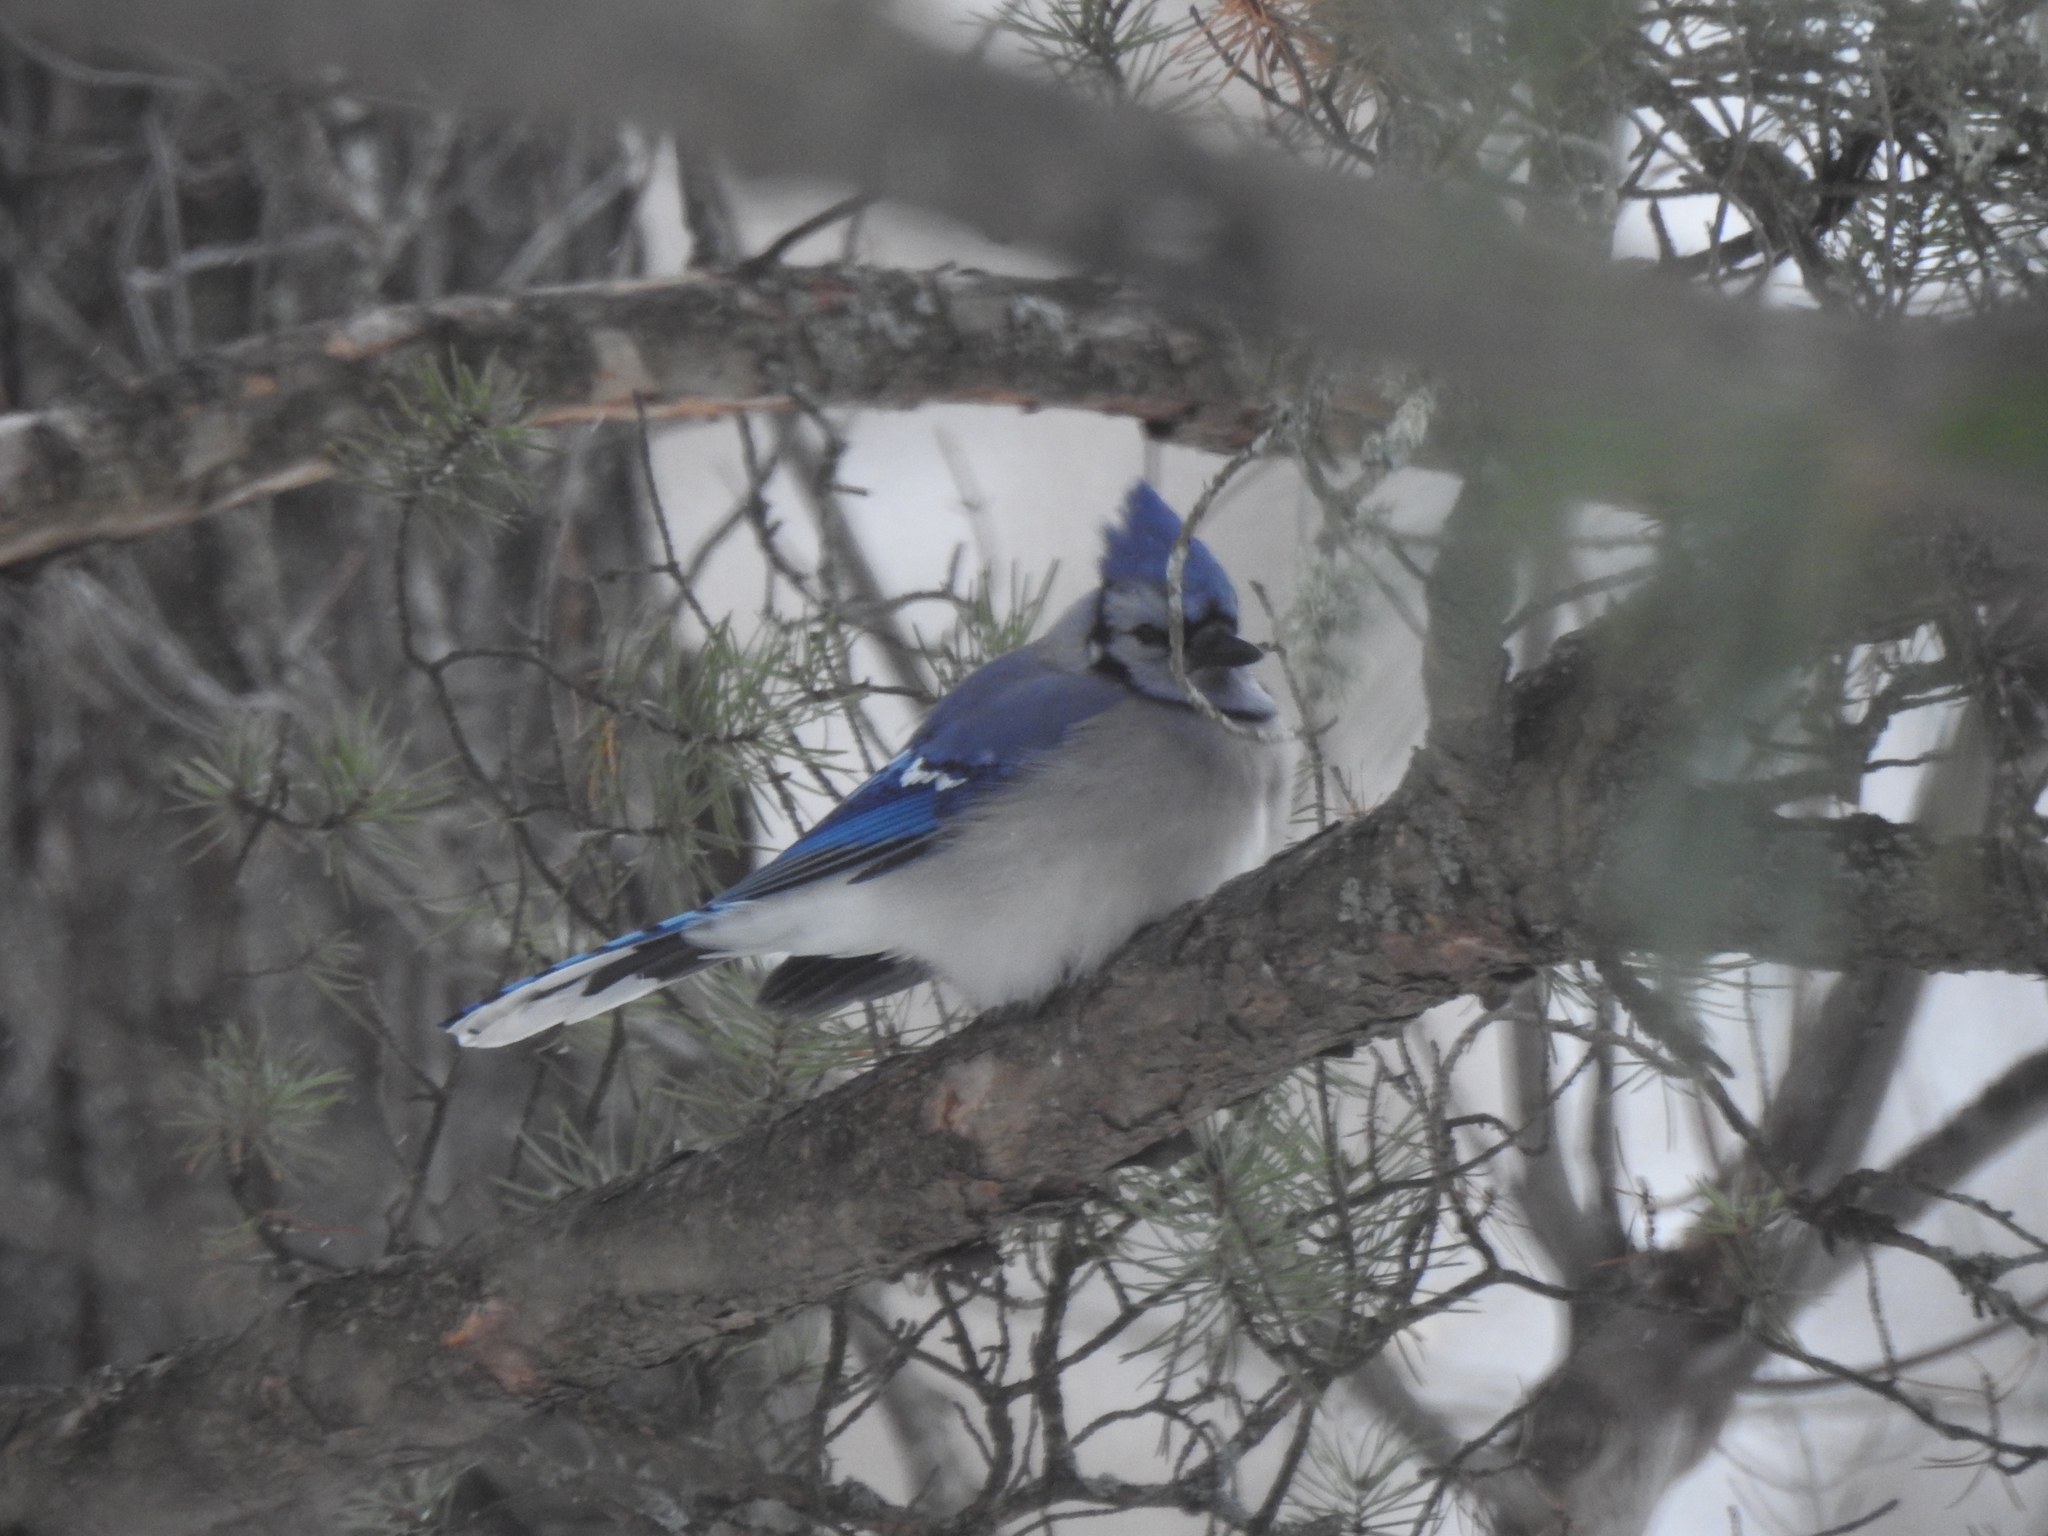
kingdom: Animalia
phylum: Chordata
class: Aves
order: Passeriformes
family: Corvidae
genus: Cyanocitta
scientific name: Cyanocitta cristata
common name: Blue jay
